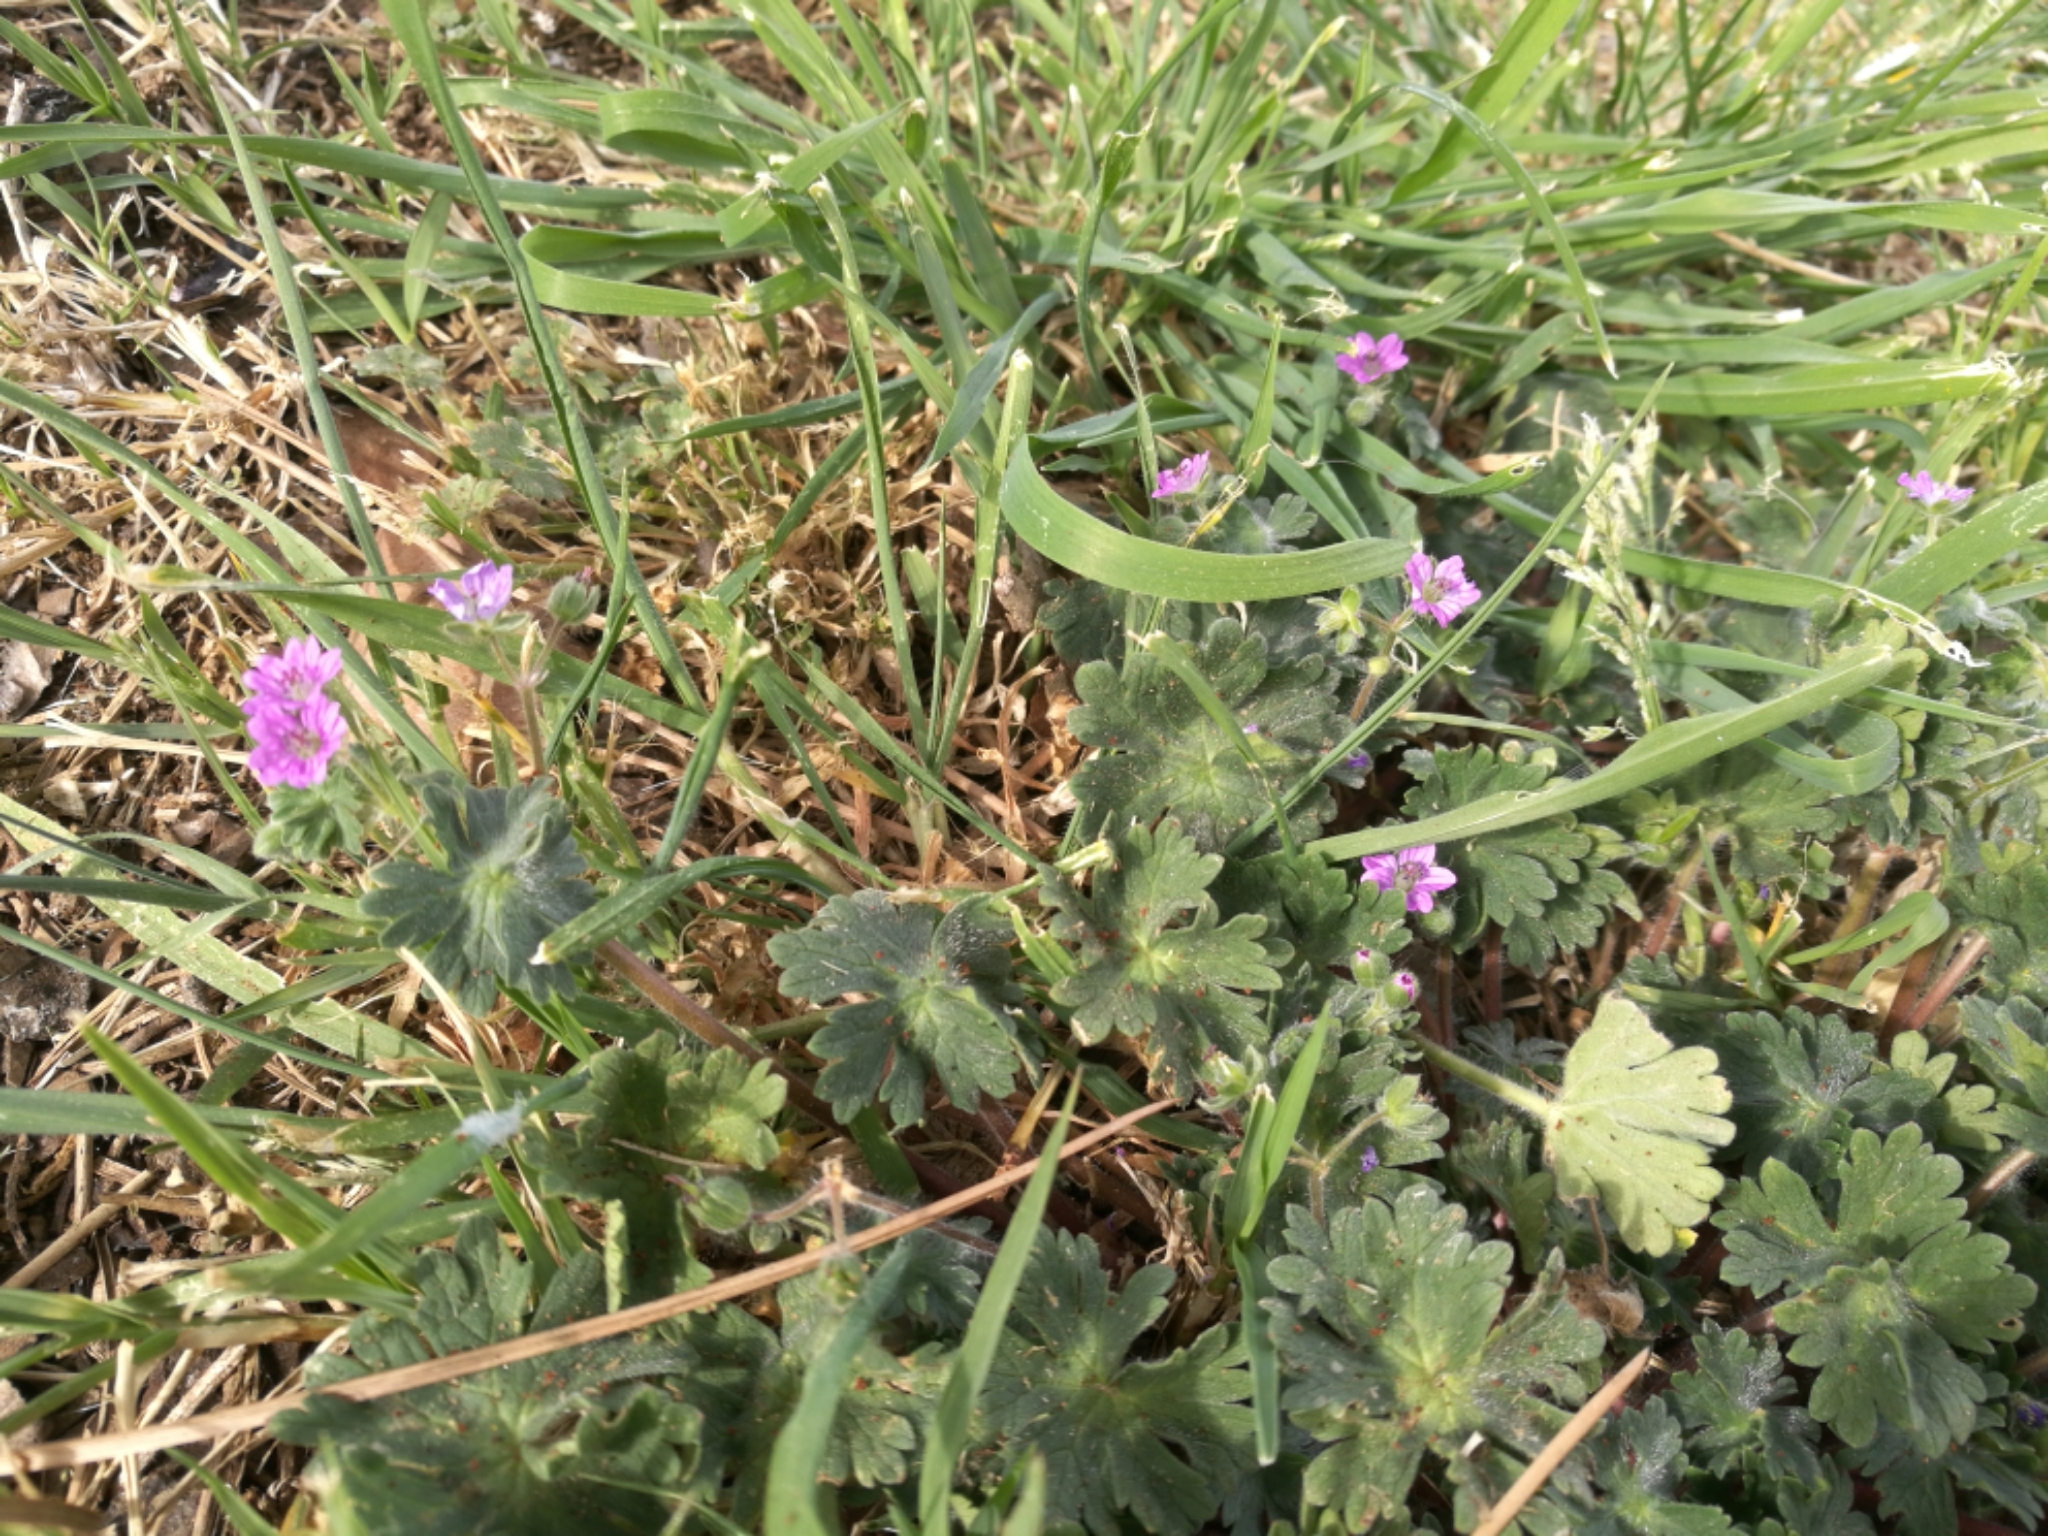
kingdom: Plantae
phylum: Tracheophyta
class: Magnoliopsida
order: Geraniales
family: Geraniaceae
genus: Geranium
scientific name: Geranium molle
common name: Dove's-foot crane's-bill
